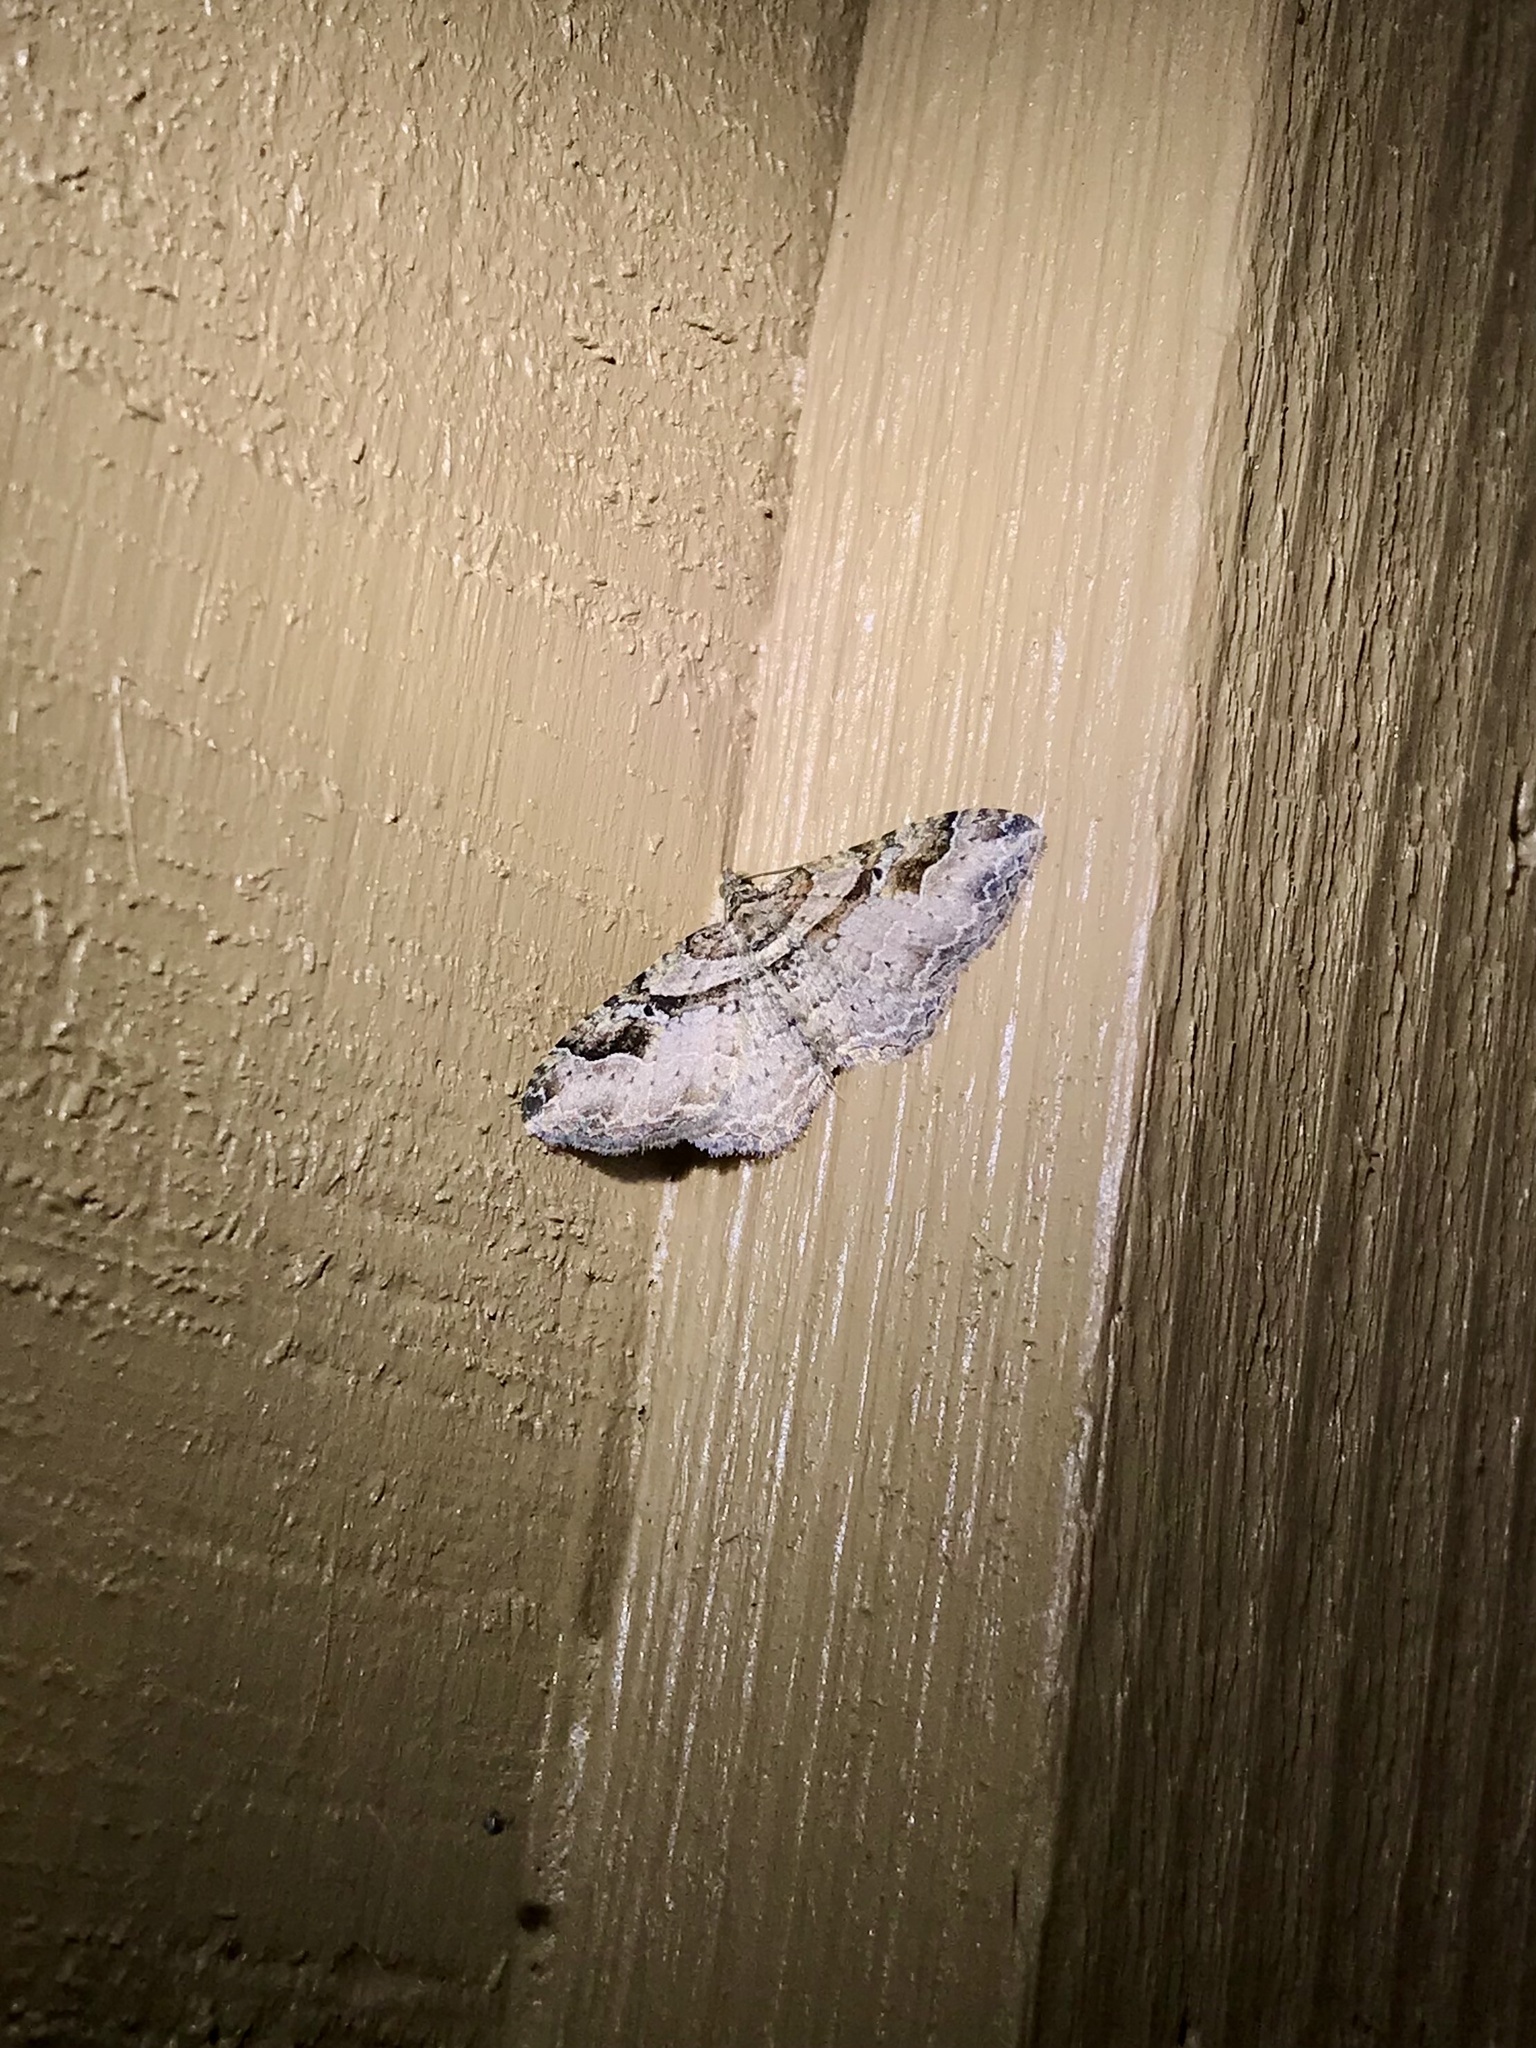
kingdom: Animalia
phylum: Arthropoda
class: Insecta
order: Lepidoptera
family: Geometridae
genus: Costaconvexa
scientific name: Costaconvexa centrostrigaria
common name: Bent-line carpet
